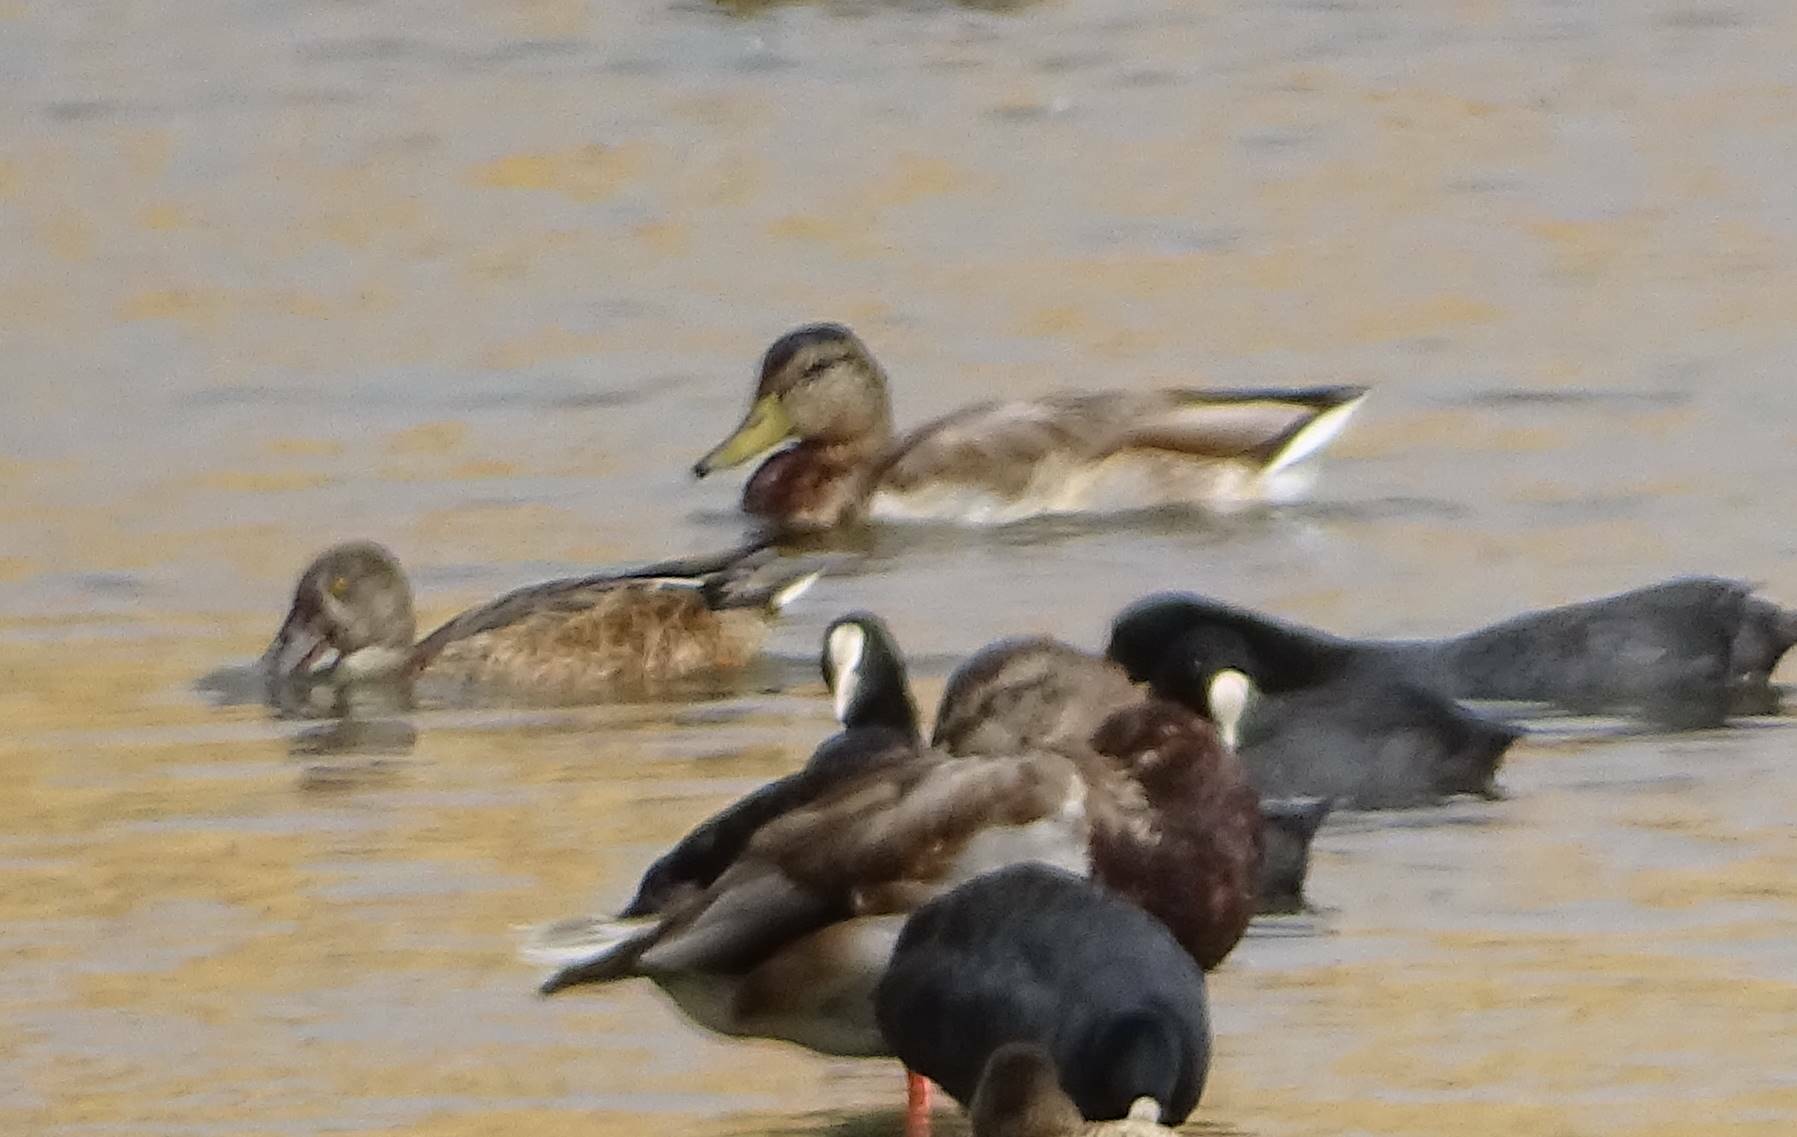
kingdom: Animalia
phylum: Chordata
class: Aves
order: Anseriformes
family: Anatidae
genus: Anas
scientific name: Anas platyrhynchos
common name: Mallard
